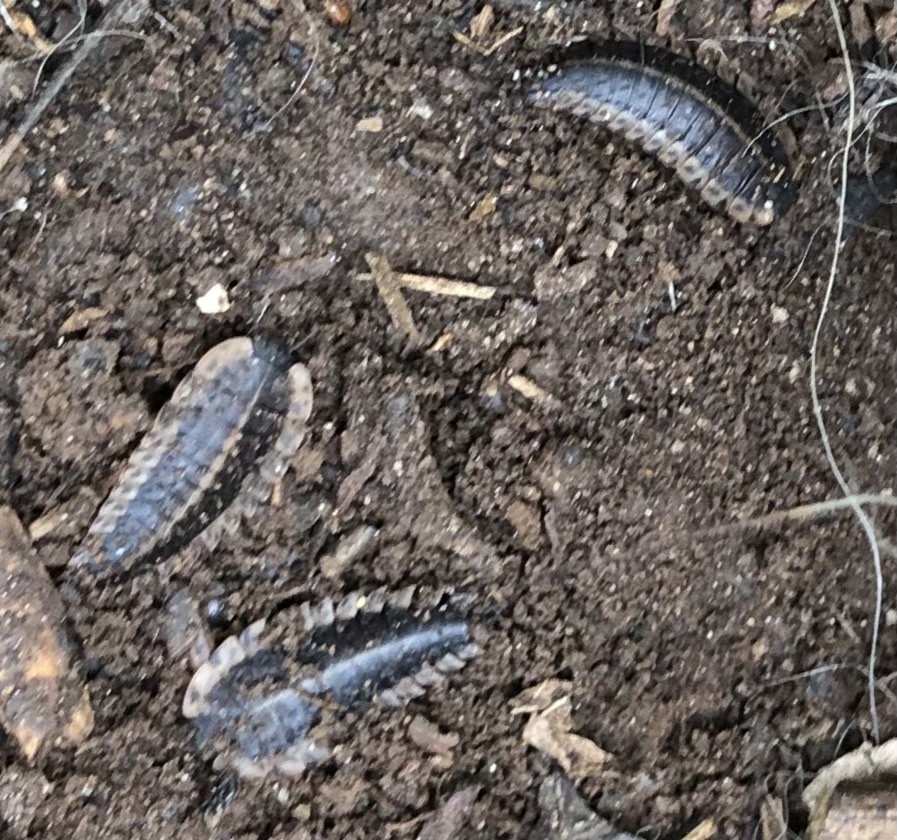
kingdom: Animalia
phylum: Arthropoda
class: Insecta
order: Coleoptera
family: Staphylinidae
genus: Oiceoptoma
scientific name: Oiceoptoma noveboracense
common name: Margined carrion beetle
